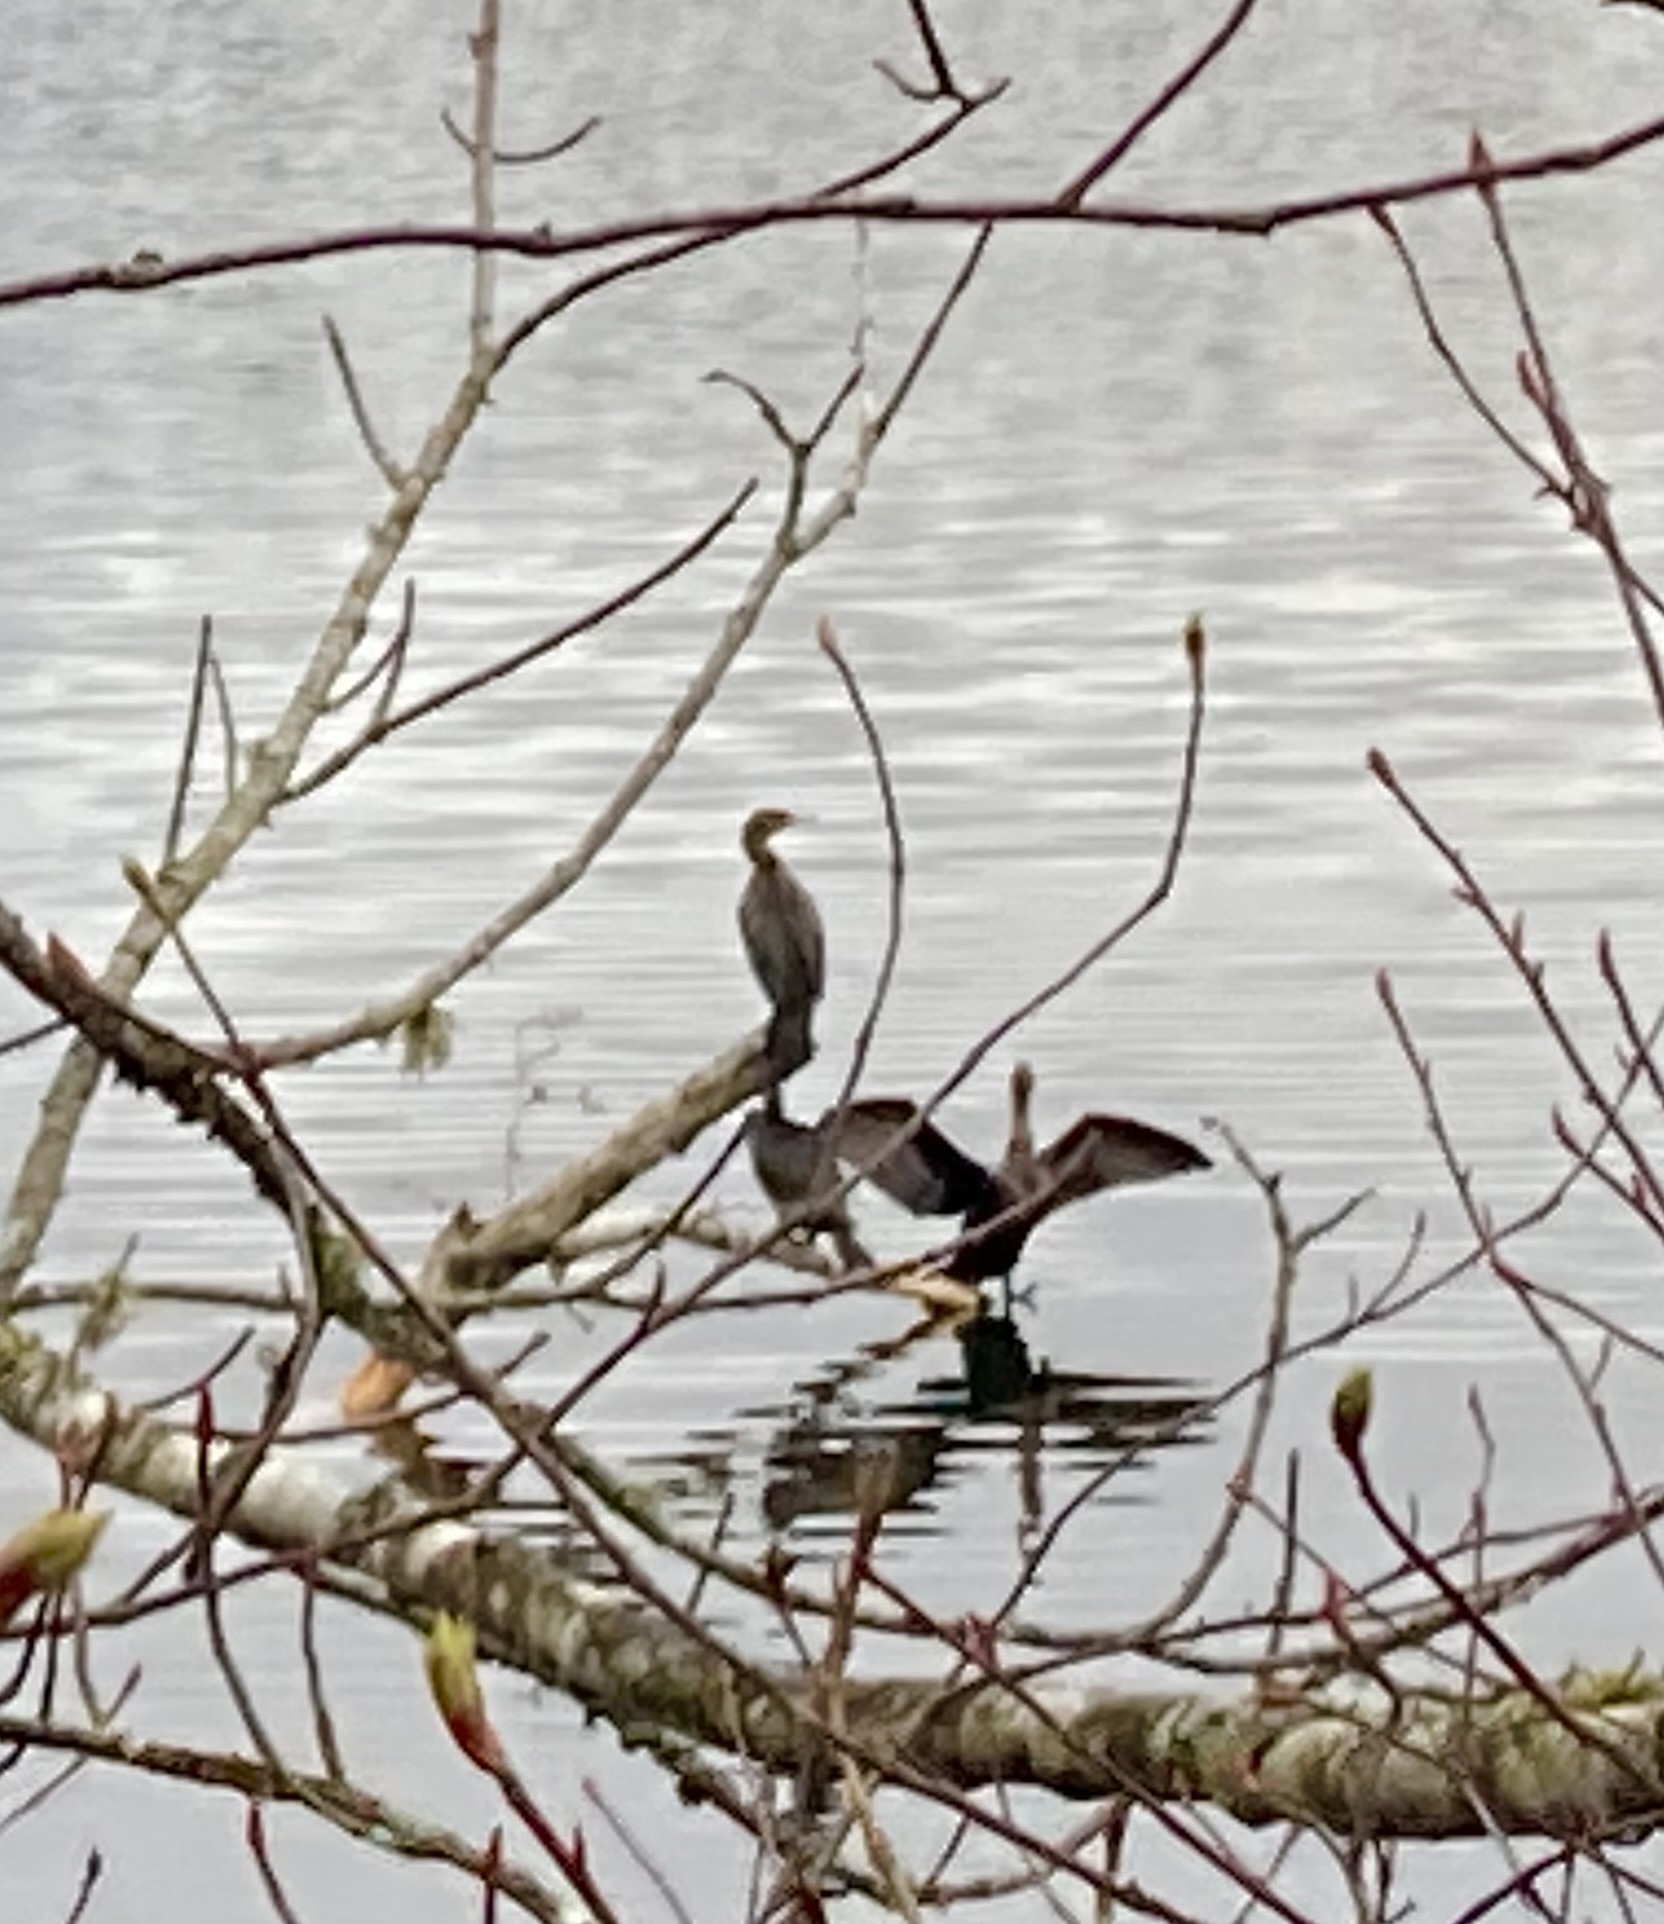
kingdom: Animalia
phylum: Chordata
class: Aves
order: Suliformes
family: Phalacrocoracidae
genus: Phalacrocorax
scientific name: Phalacrocorax auritus
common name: Double-crested cormorant
